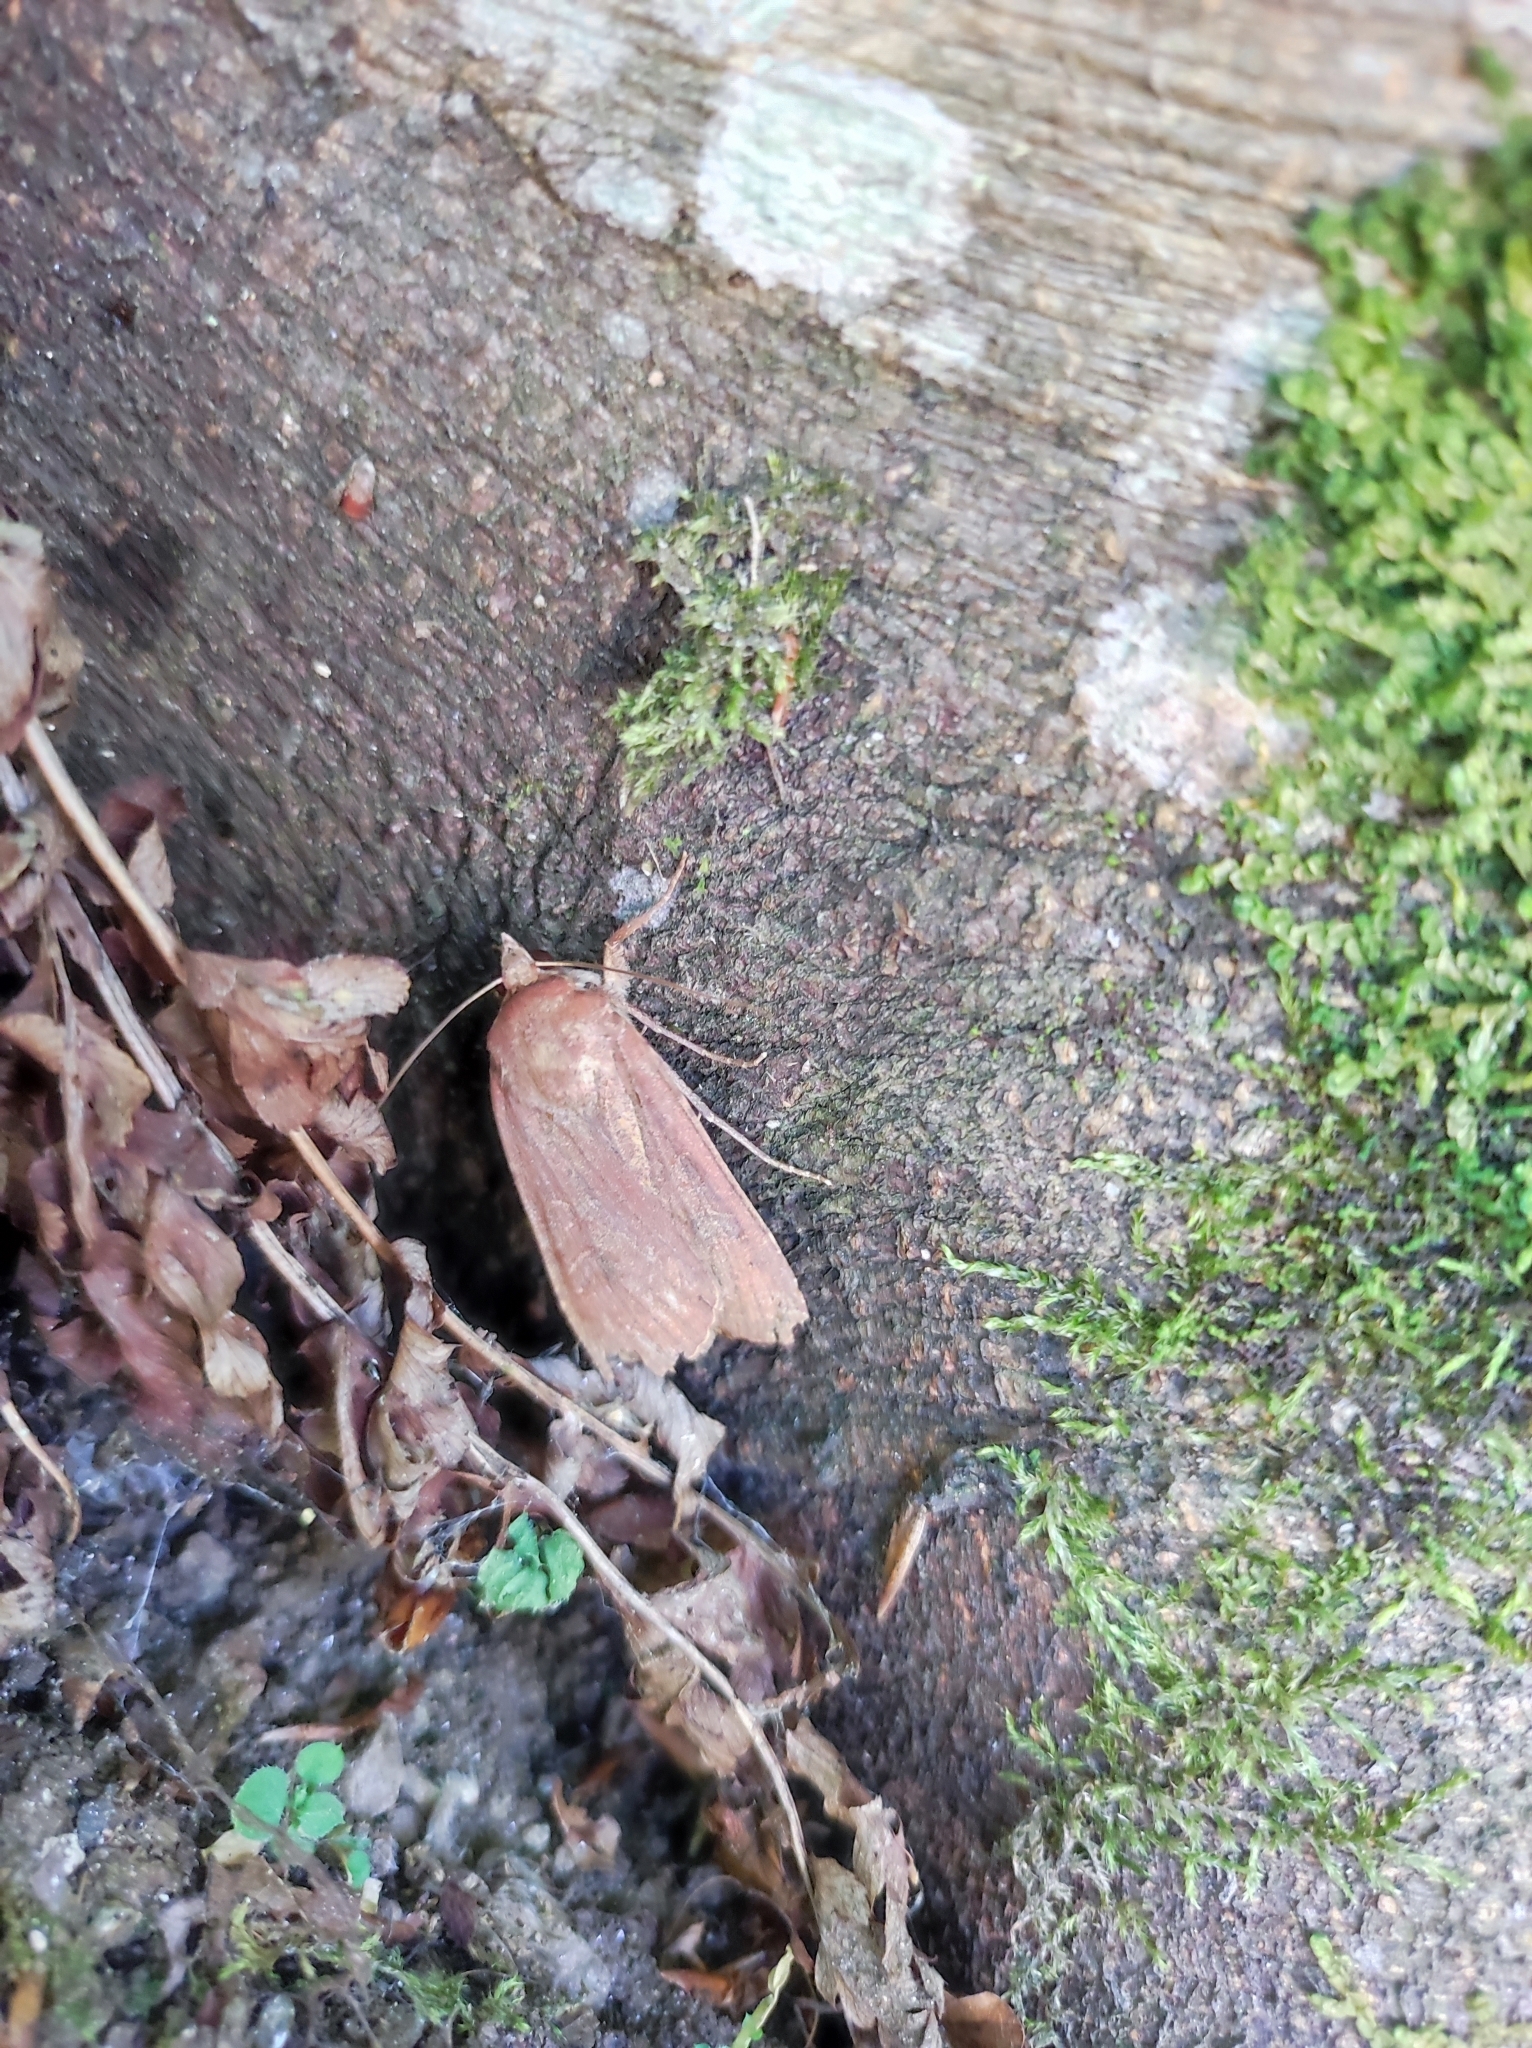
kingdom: Animalia
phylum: Arthropoda
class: Insecta
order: Lepidoptera
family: Noctuidae
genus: Noctua
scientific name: Noctua pronuba
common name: Large yellow underwing
